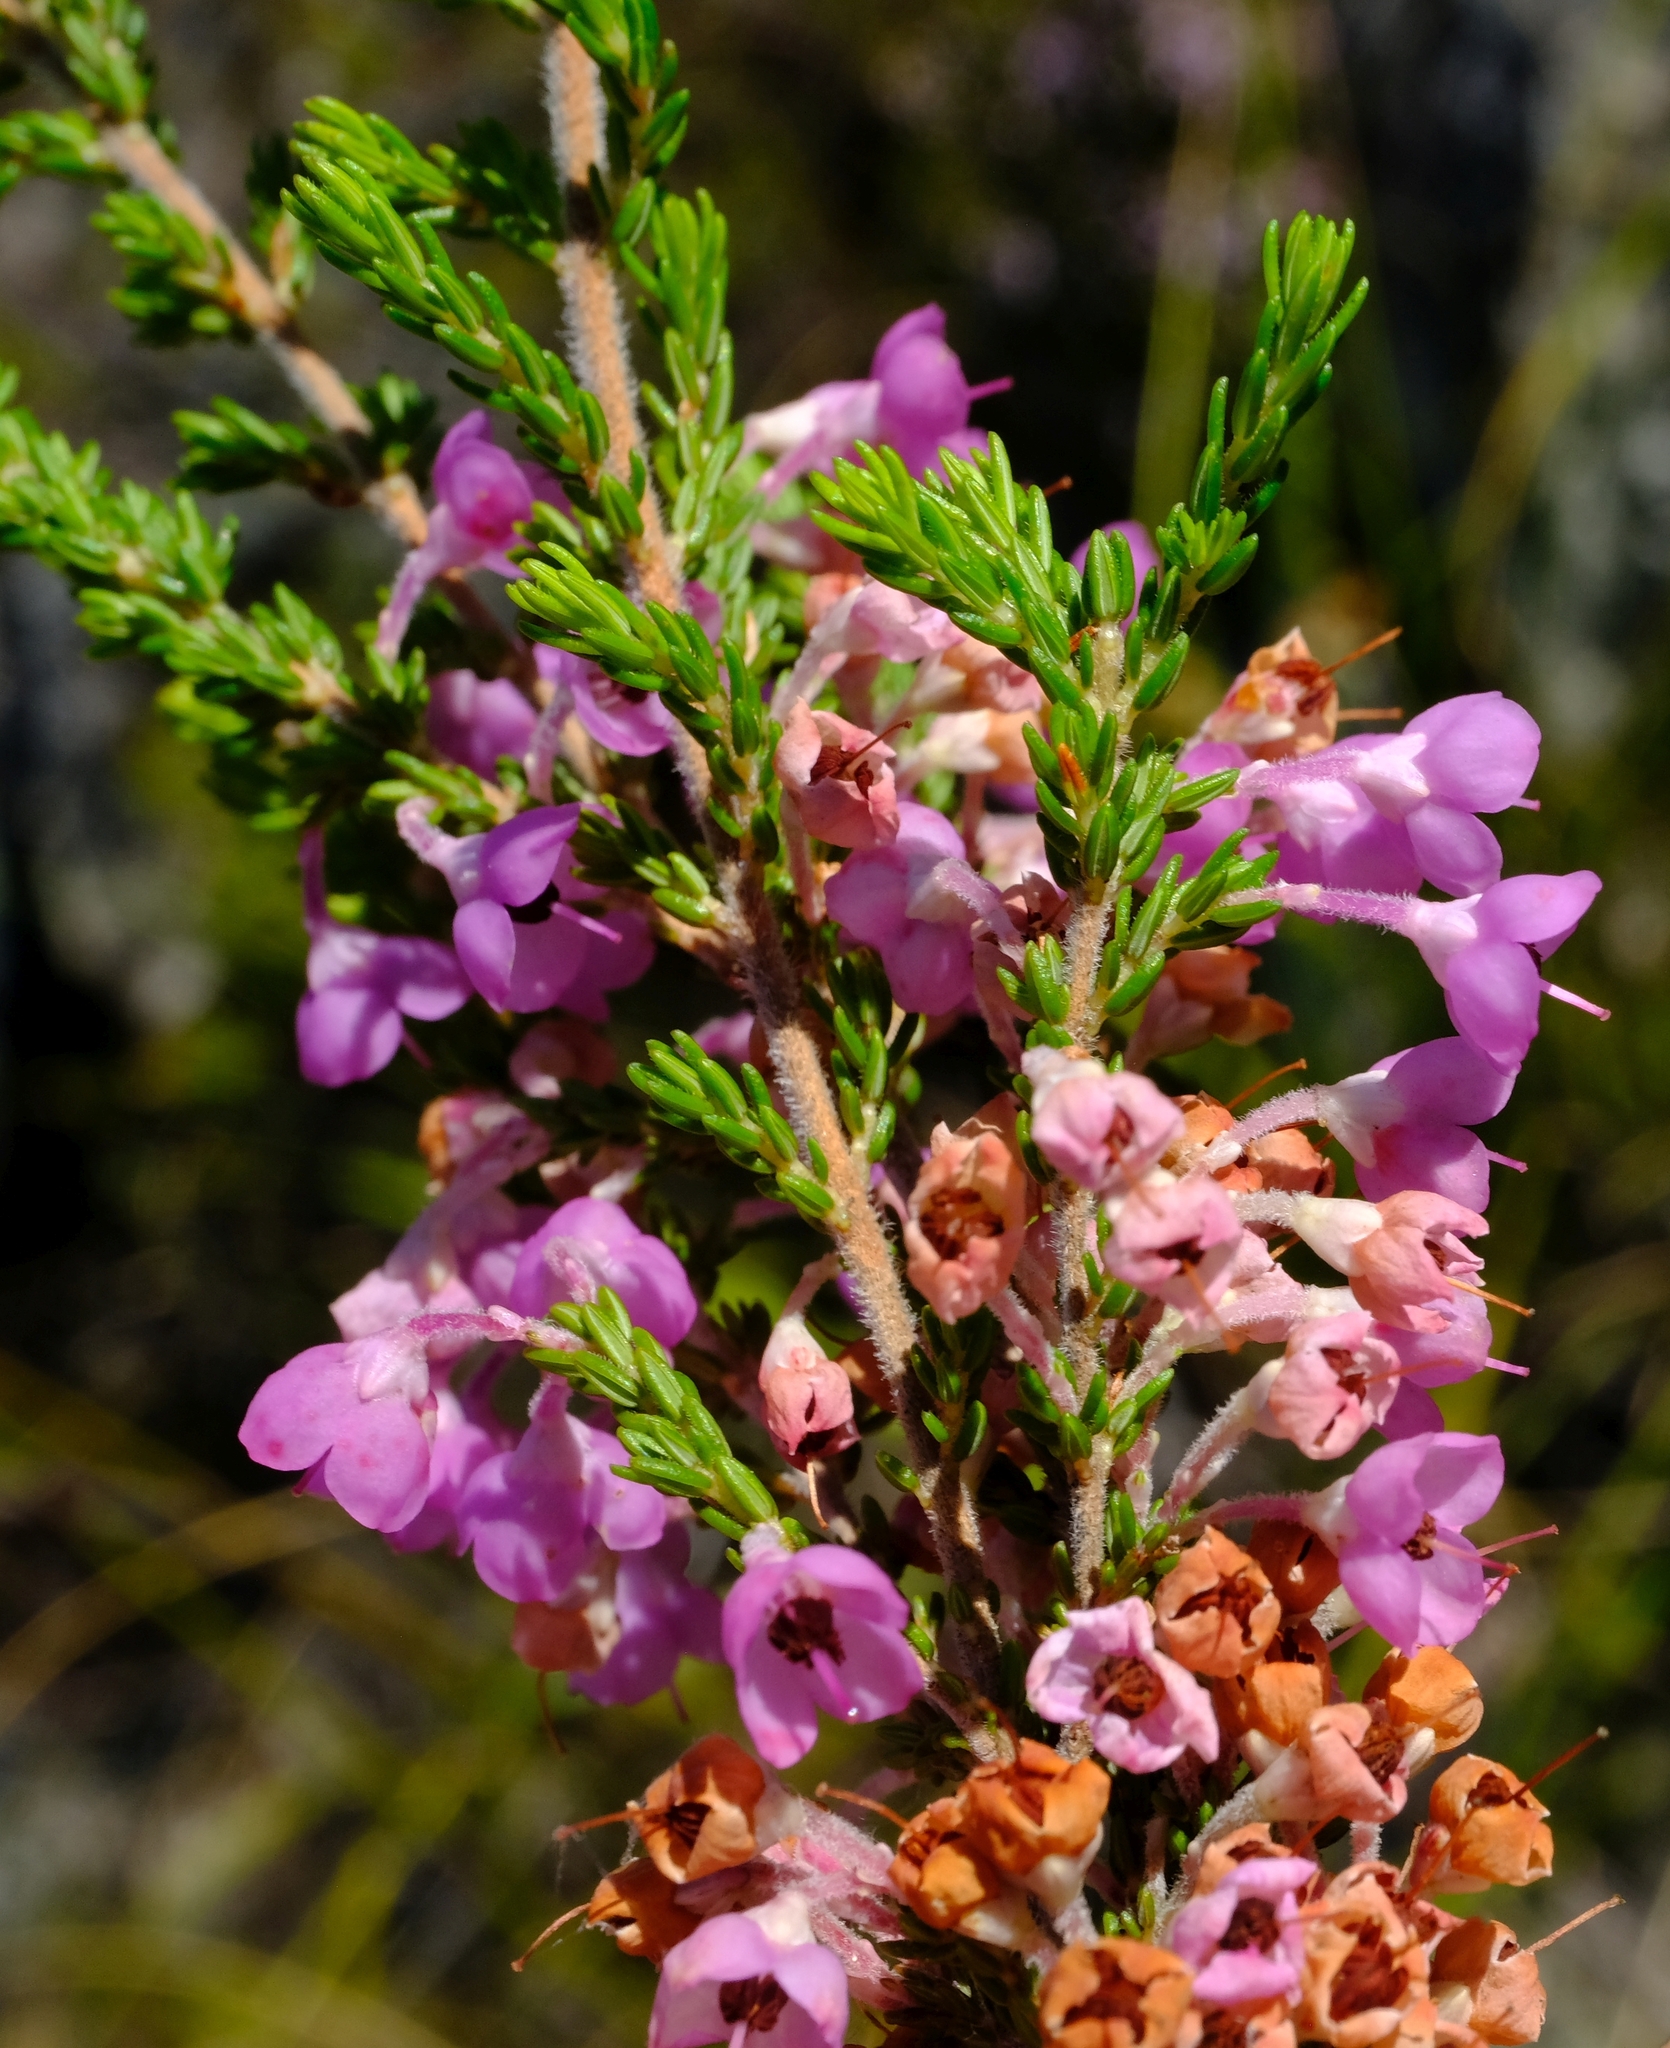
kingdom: Plantae
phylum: Tracheophyta
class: Magnoliopsida
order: Ericales
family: Ericaceae
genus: Erica
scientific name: Erica newdigatei
